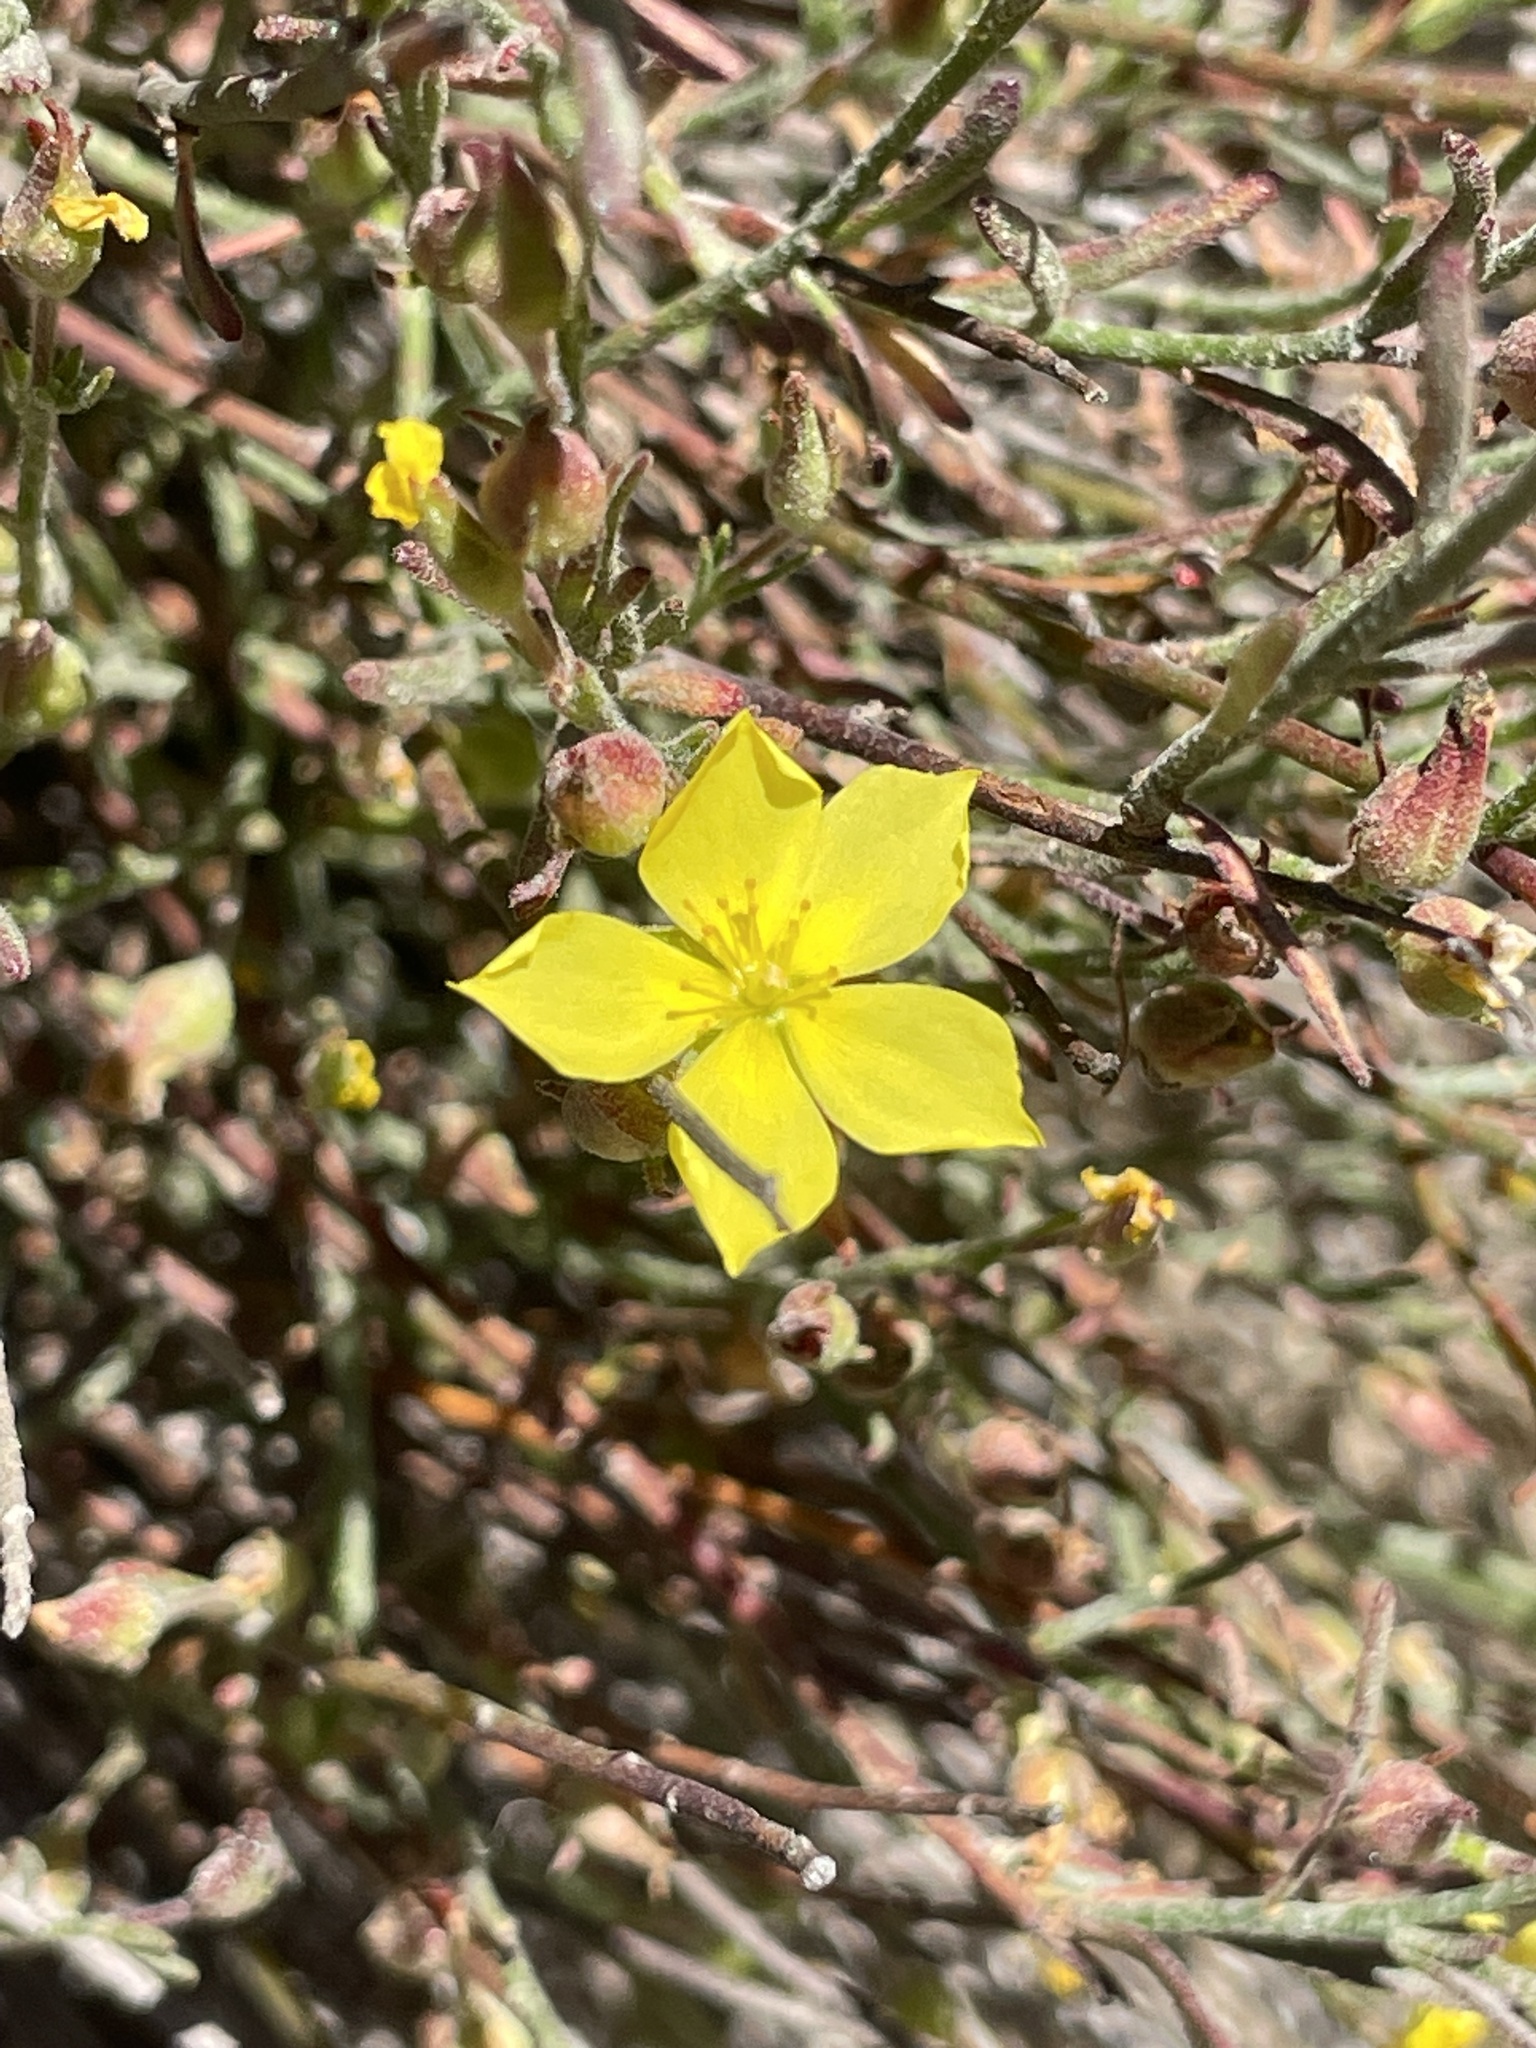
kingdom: Plantae
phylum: Tracheophyta
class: Magnoliopsida
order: Malvales
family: Cistaceae
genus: Crocanthemum
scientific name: Crocanthemum scoparium
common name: Broom-rose
